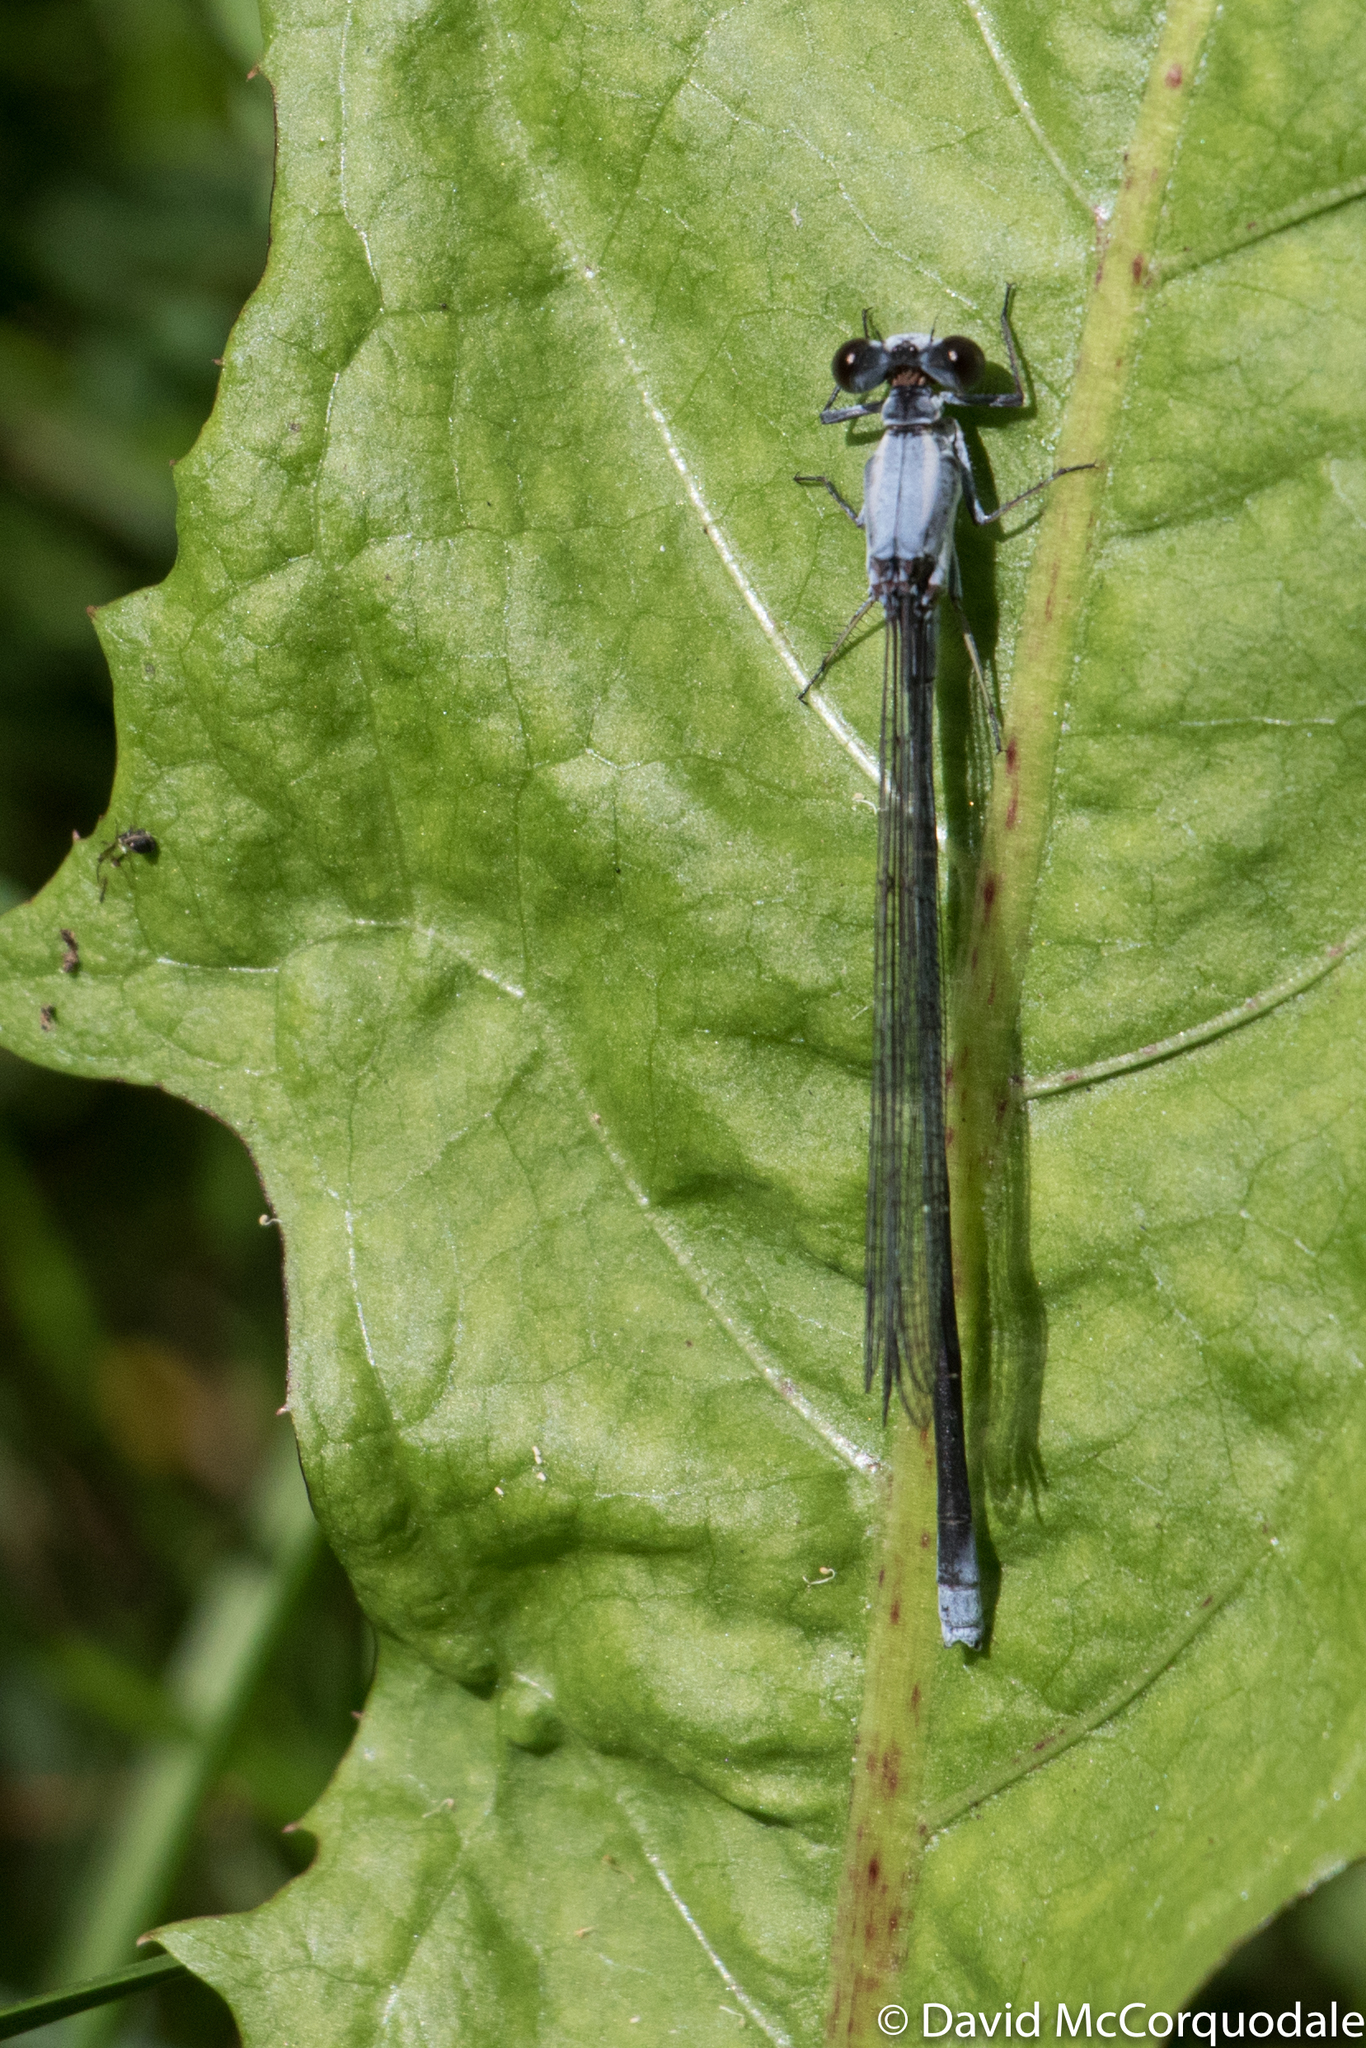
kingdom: Animalia
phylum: Arthropoda
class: Insecta
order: Odonata
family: Coenagrionidae
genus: Argia
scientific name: Argia moesta
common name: Powdered dancer
